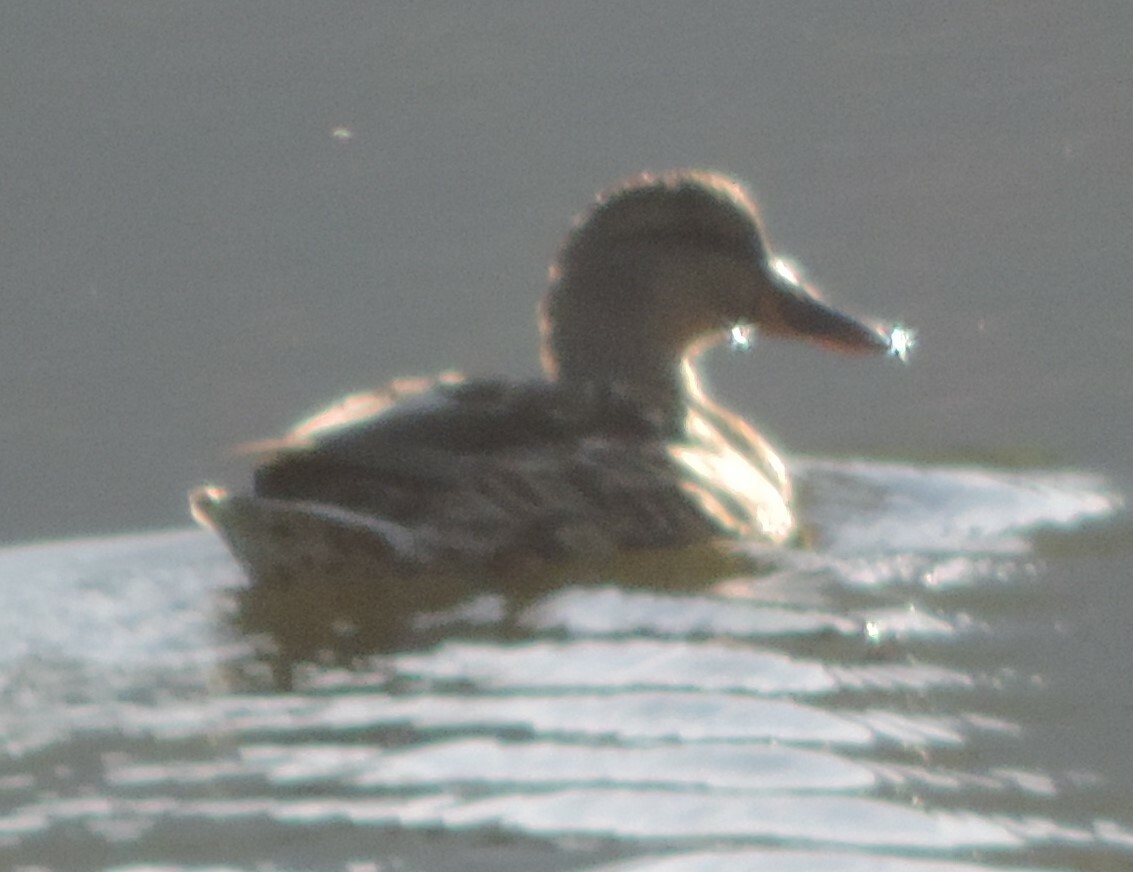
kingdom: Animalia
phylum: Chordata
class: Aves
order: Anseriformes
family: Anatidae
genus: Anas
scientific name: Anas platyrhynchos
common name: Mallard
